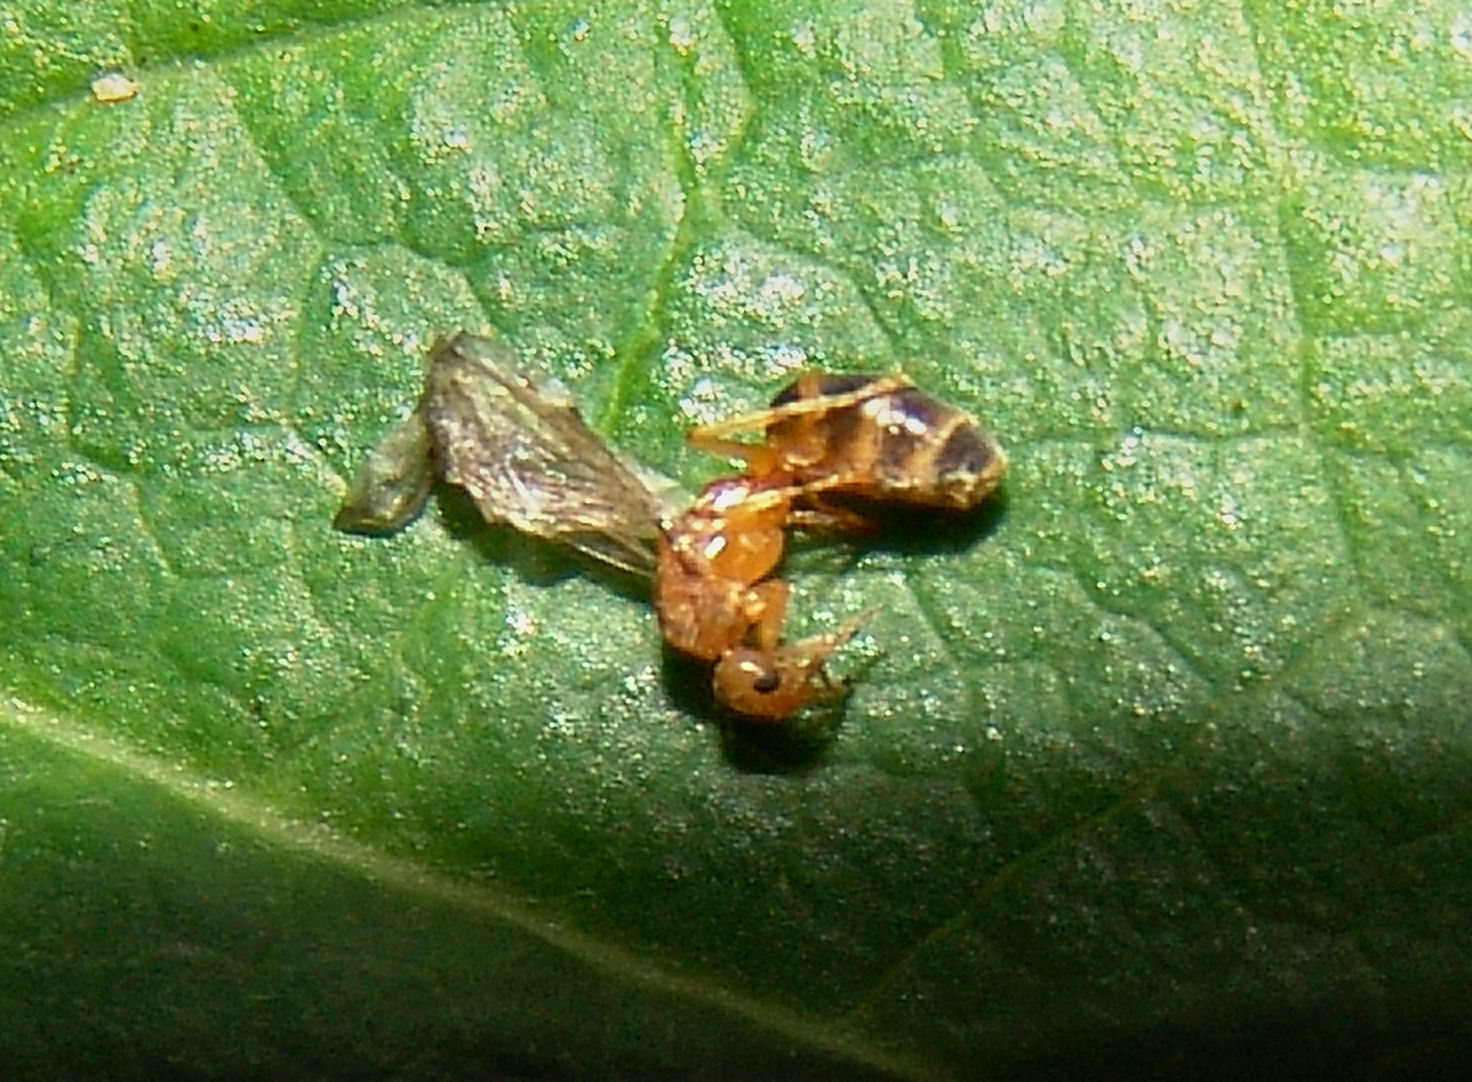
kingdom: Animalia
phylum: Arthropoda
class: Insecta
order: Hymenoptera
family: Formicidae
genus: Forelius
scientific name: Forelius pruinosus
